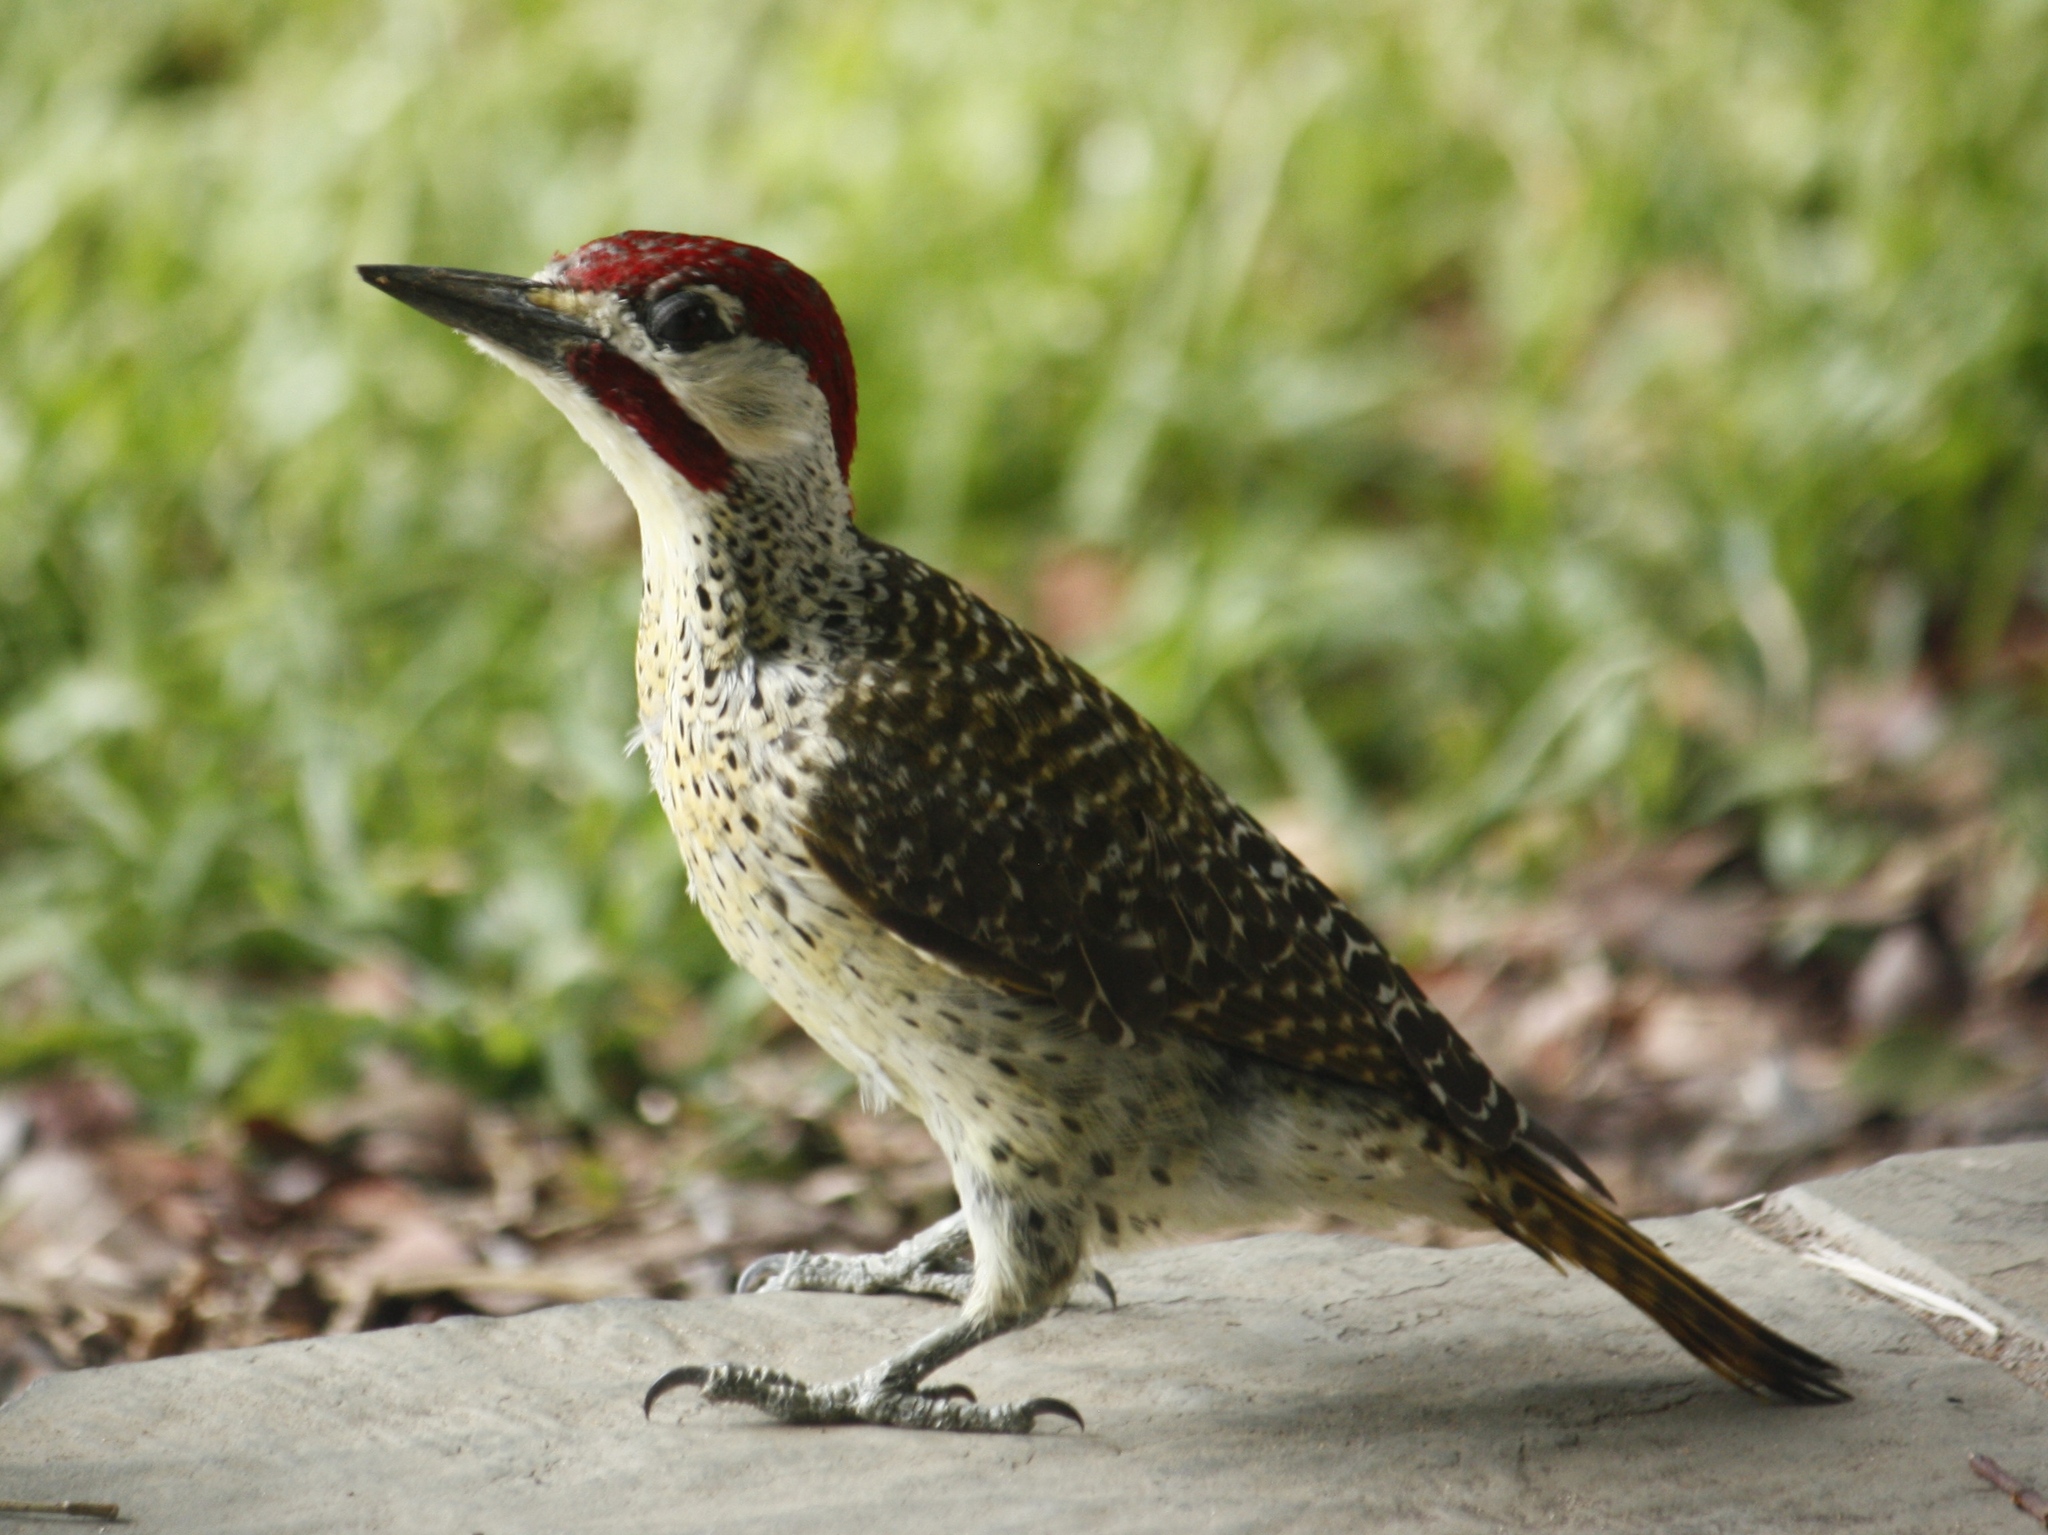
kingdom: Animalia
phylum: Chordata
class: Aves
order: Piciformes
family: Picidae
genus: Campethera
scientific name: Campethera bennettii
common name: Bennett's woodpecker
